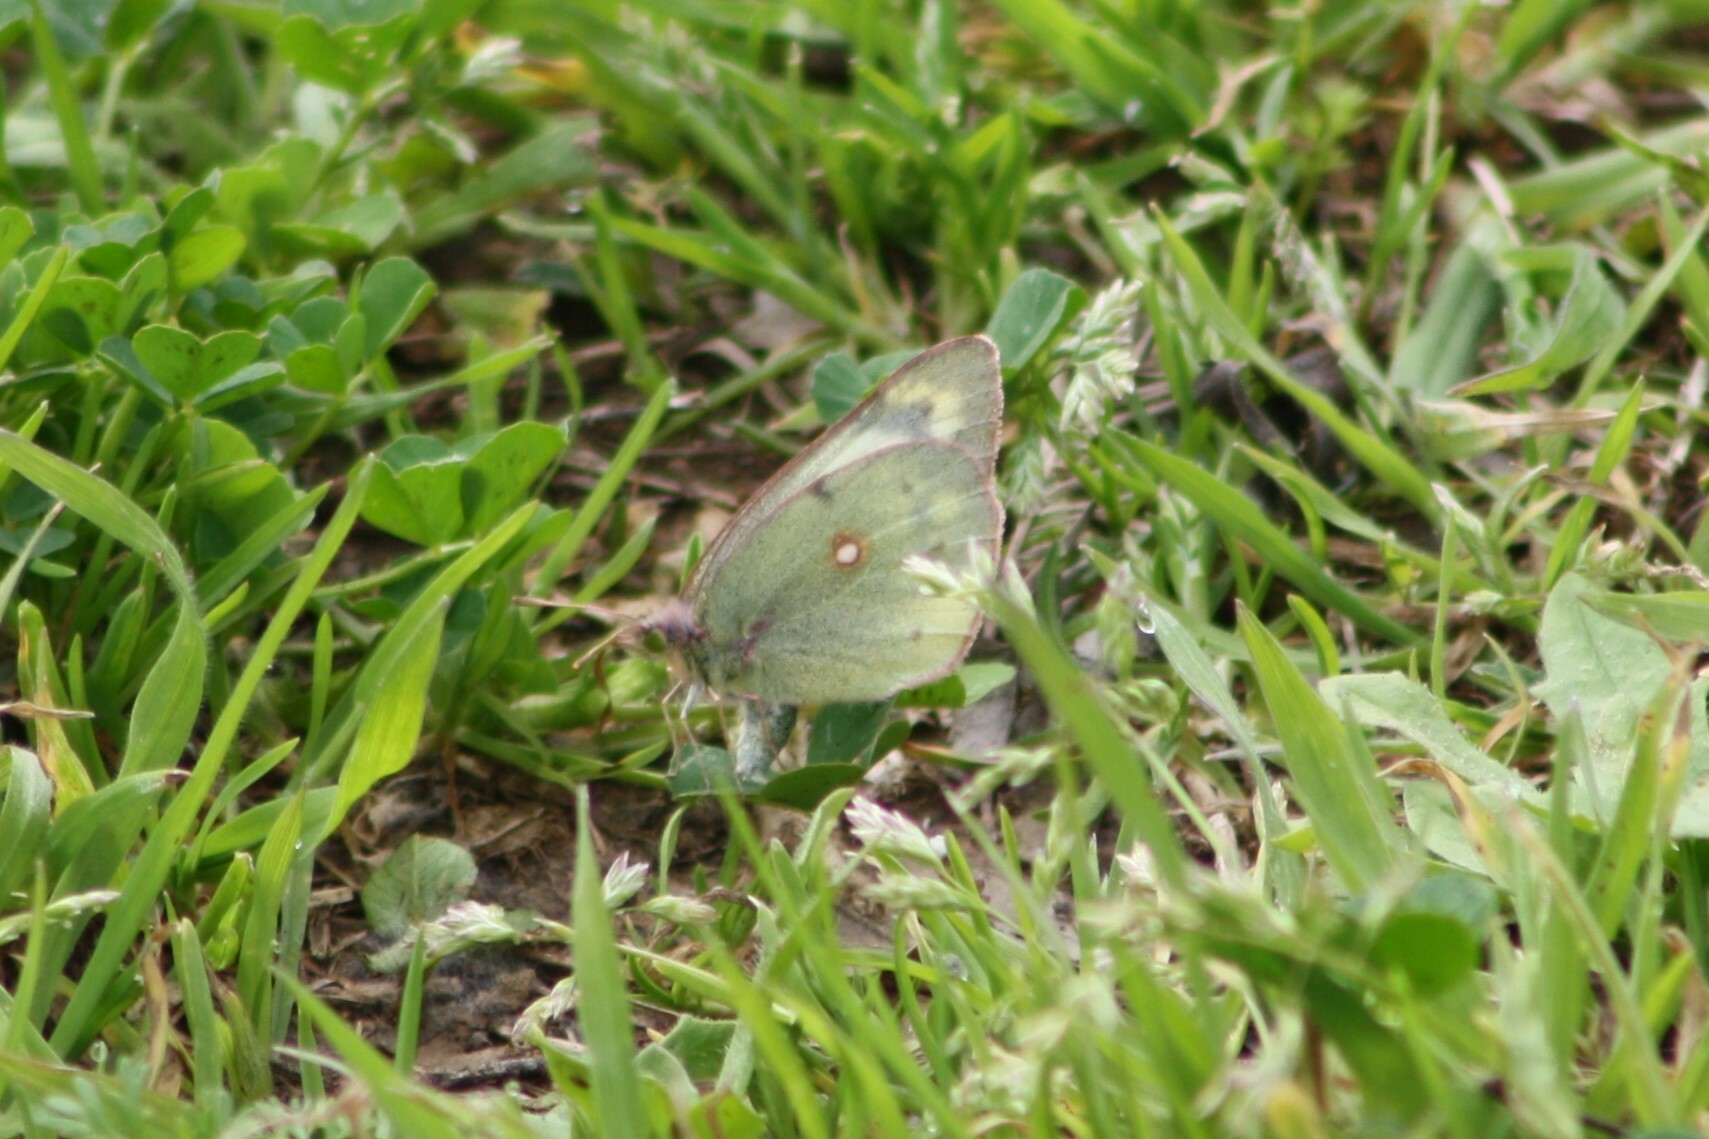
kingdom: Animalia
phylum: Arthropoda
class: Insecta
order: Lepidoptera
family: Pieridae
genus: Colias
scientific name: Colias eurytheme
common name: Alfalfa butterfly
